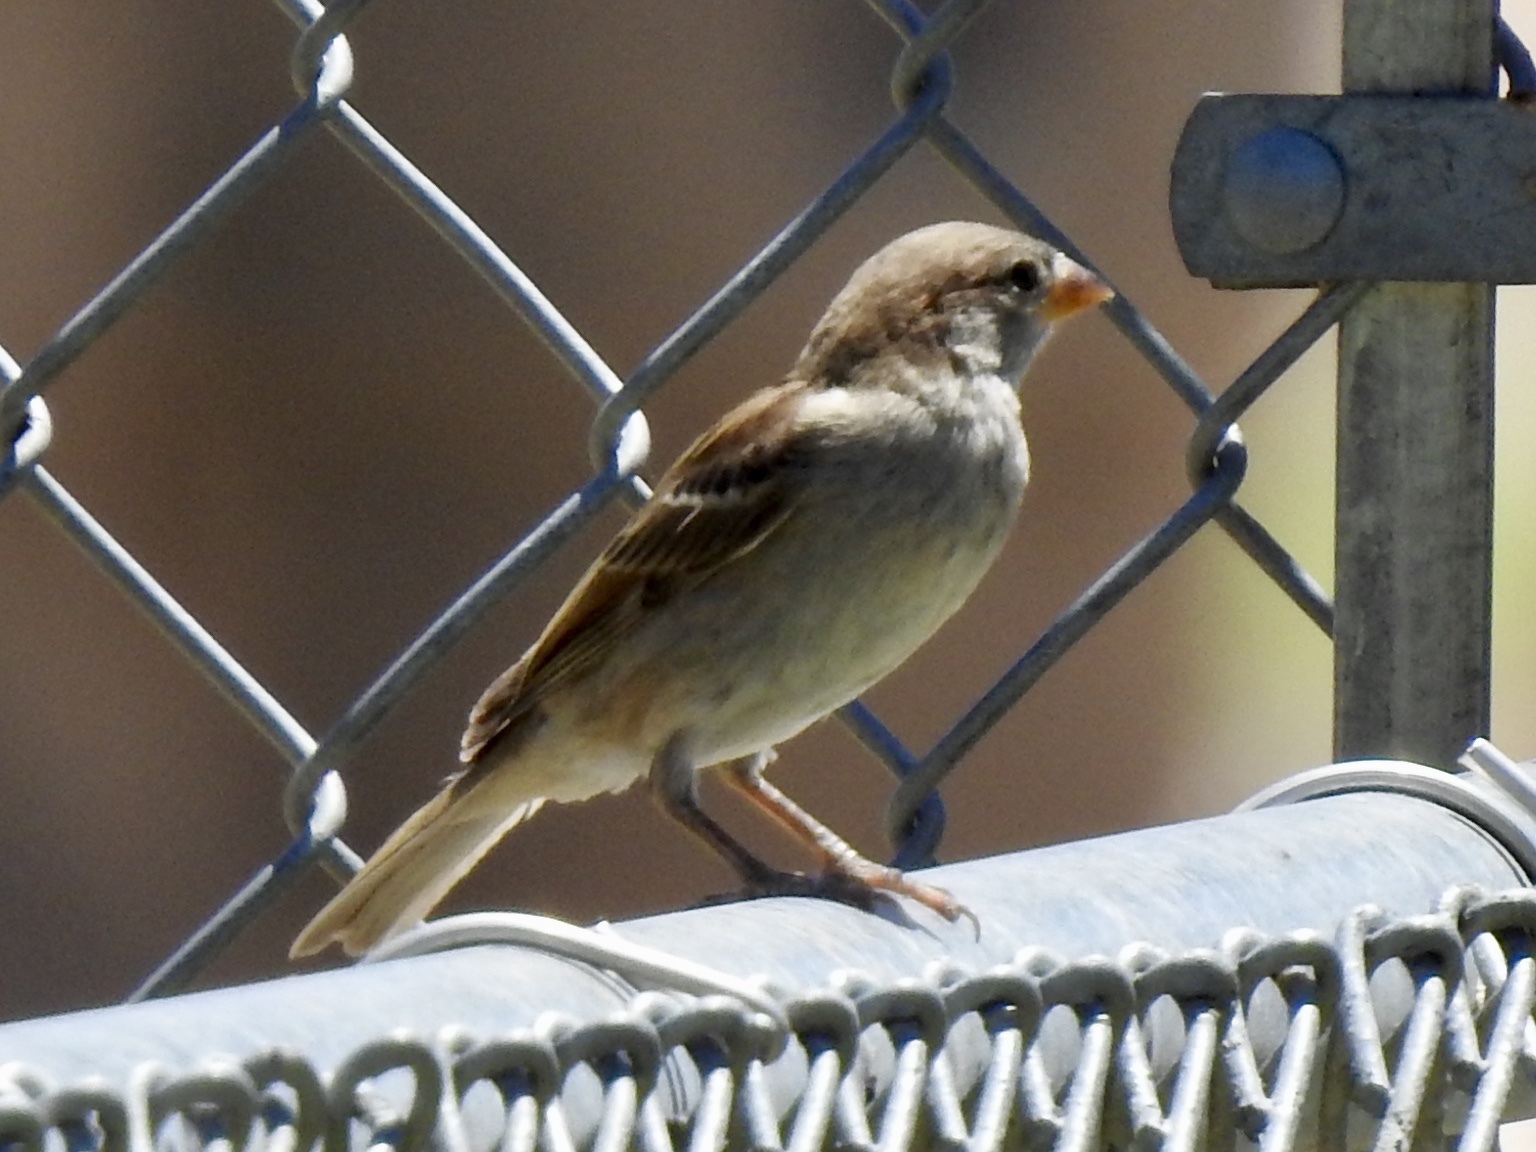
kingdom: Animalia
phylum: Chordata
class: Aves
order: Passeriformes
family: Passeridae
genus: Passer
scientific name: Passer domesticus
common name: House sparrow
